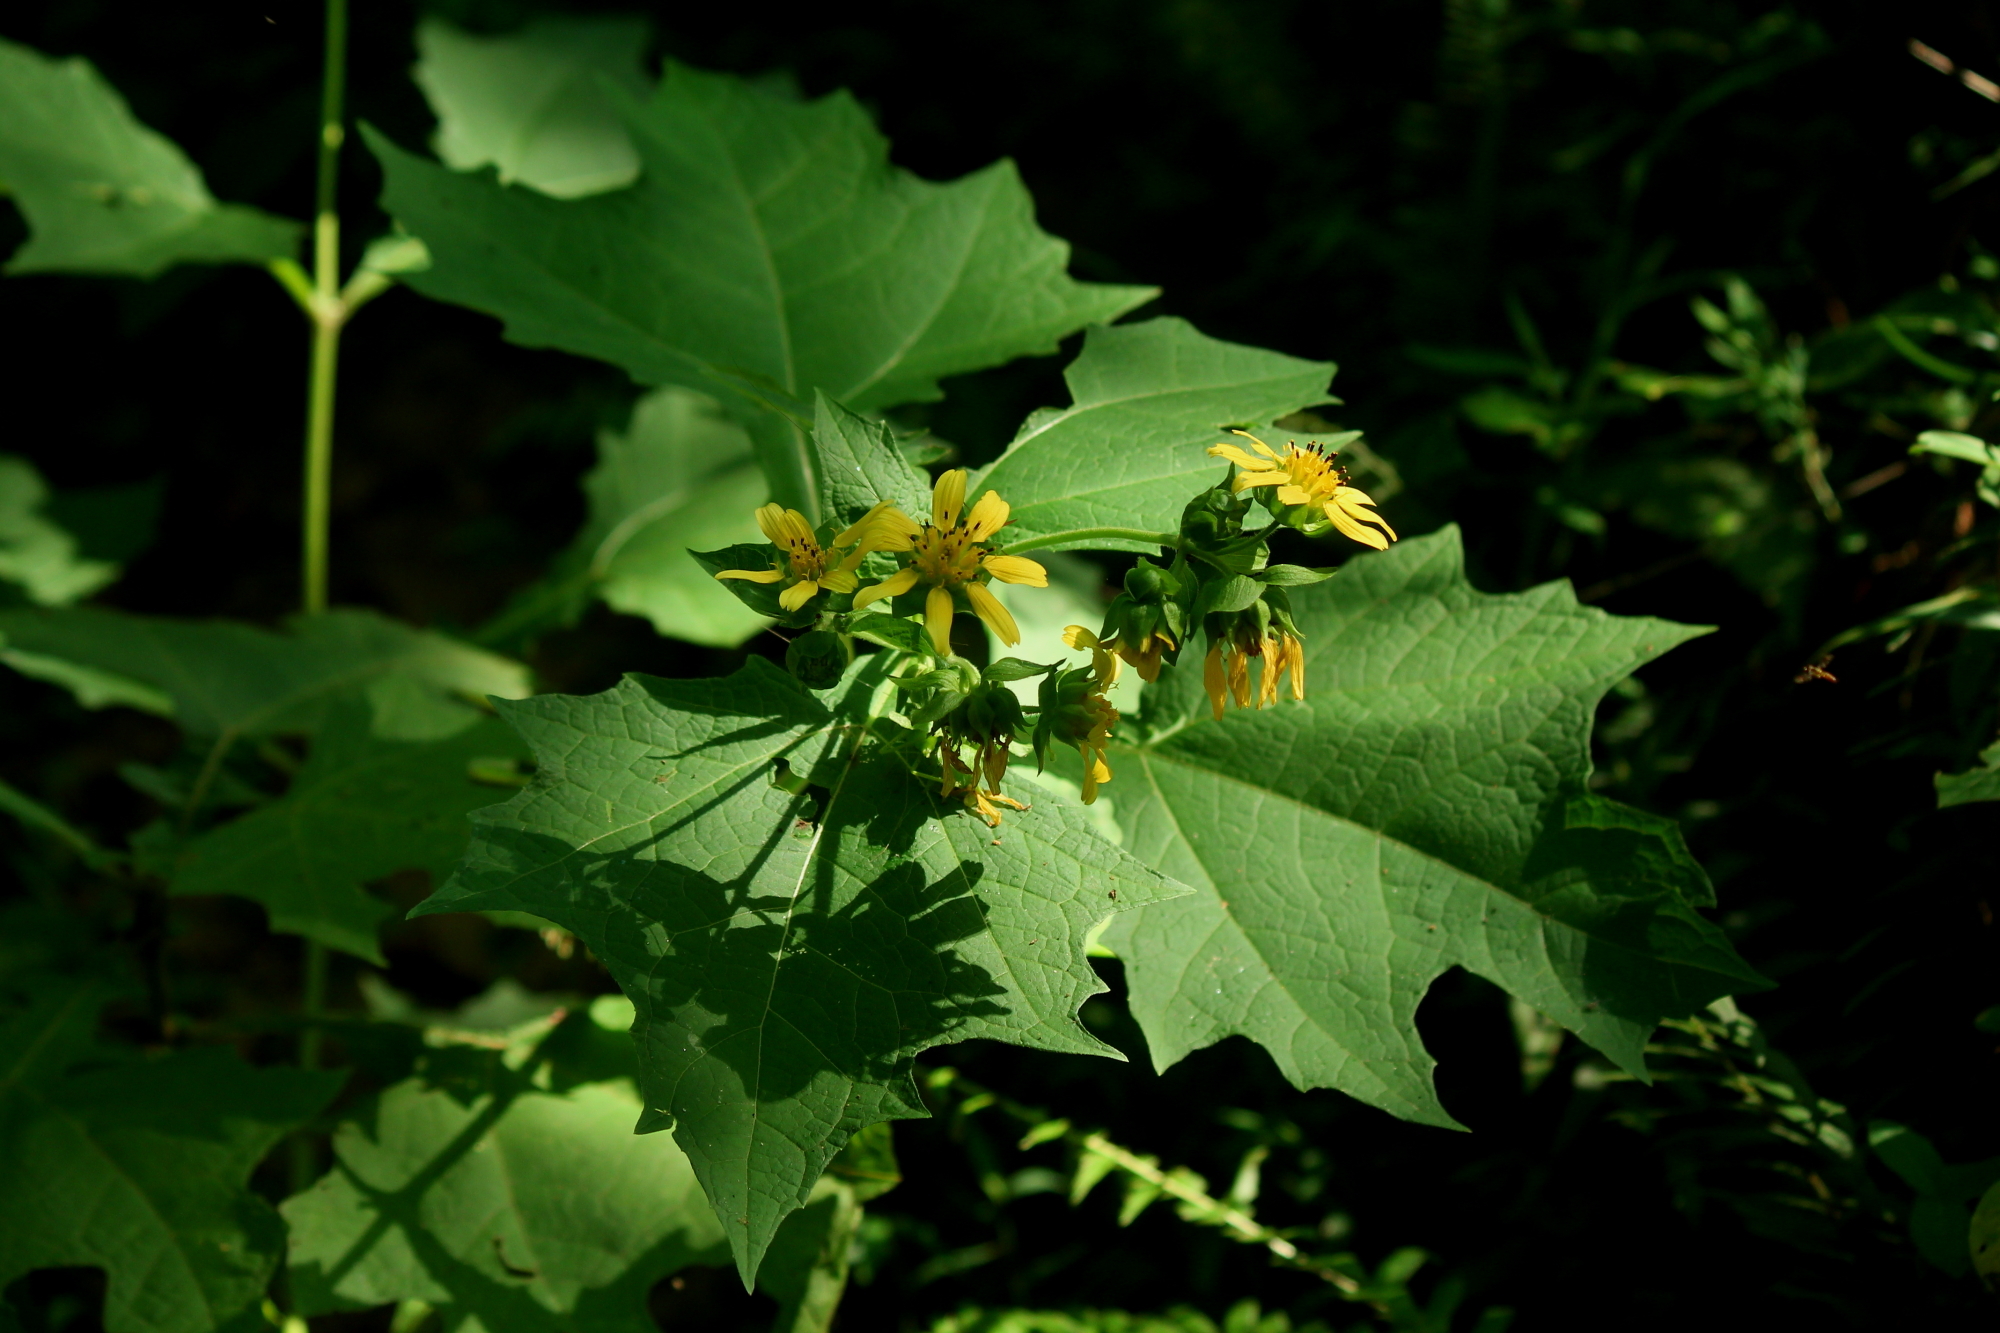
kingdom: Plantae
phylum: Tracheophyta
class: Magnoliopsida
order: Asterales
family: Asteraceae
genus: Smallanthus
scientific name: Smallanthus uvedalia
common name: Bear's-foot
